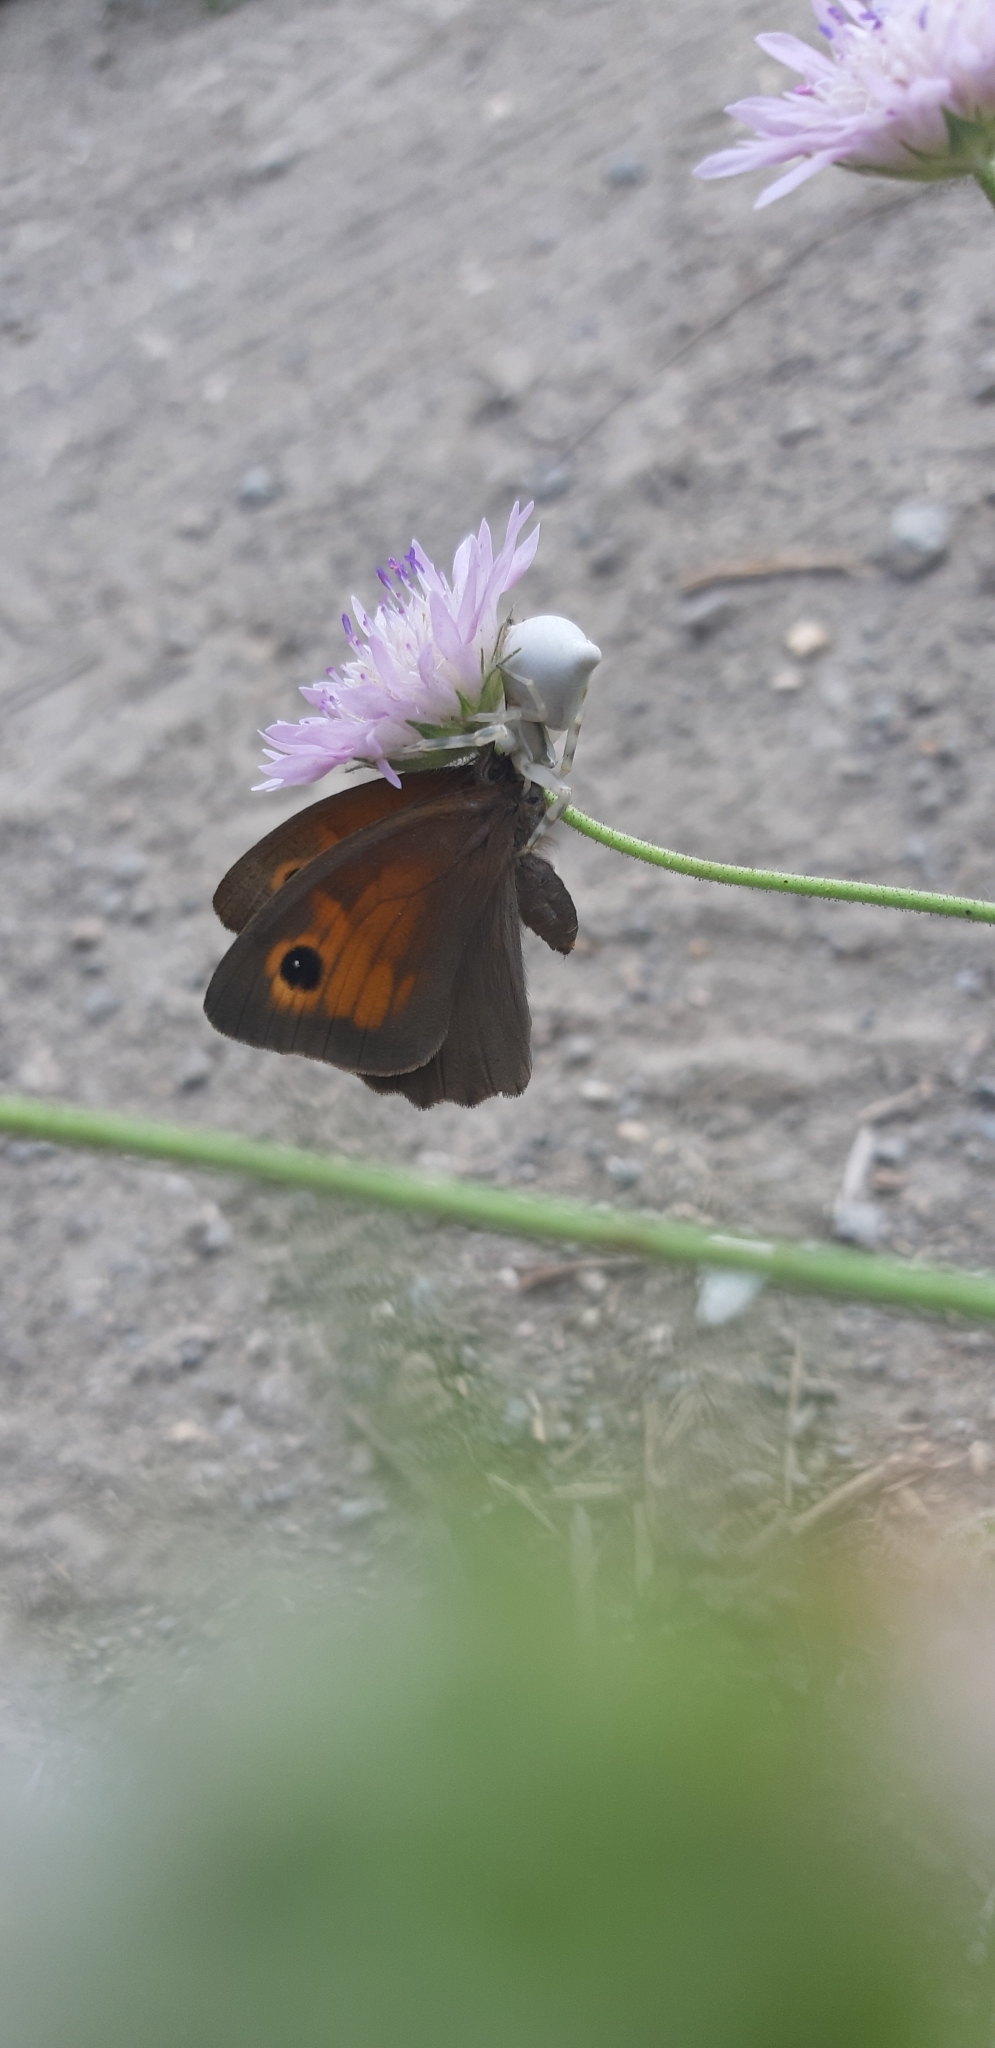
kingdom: Animalia
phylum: Arthropoda
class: Insecta
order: Lepidoptera
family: Nymphalidae
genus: Maniola
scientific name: Maniola jurtina
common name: Meadow brown
